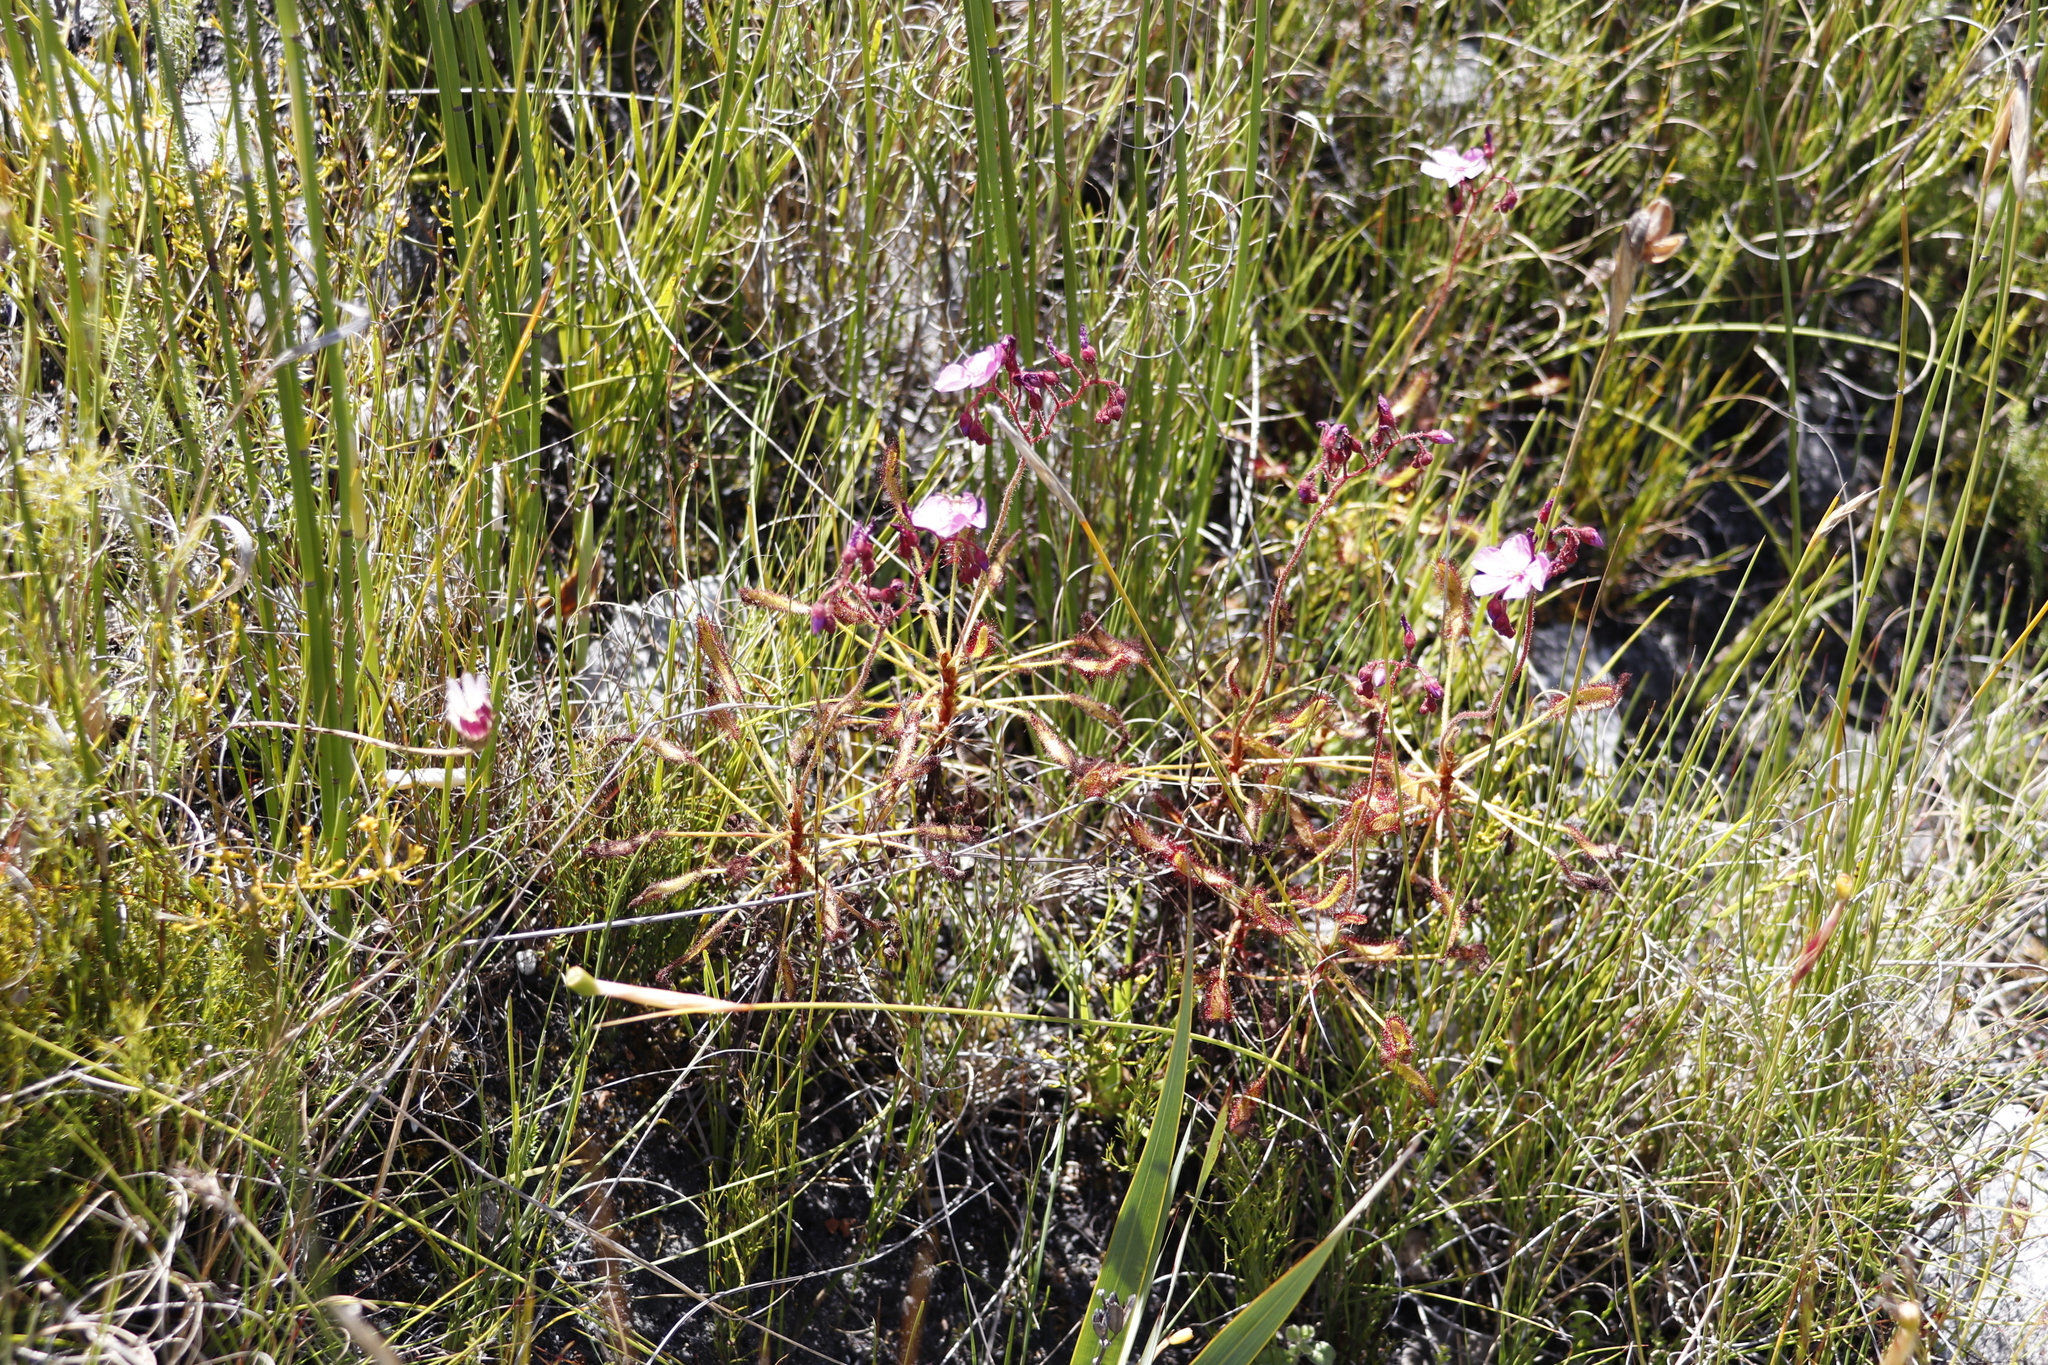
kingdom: Plantae
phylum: Tracheophyta
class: Magnoliopsida
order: Caryophyllales
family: Droseraceae
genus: Drosera
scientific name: Drosera ramentacea
